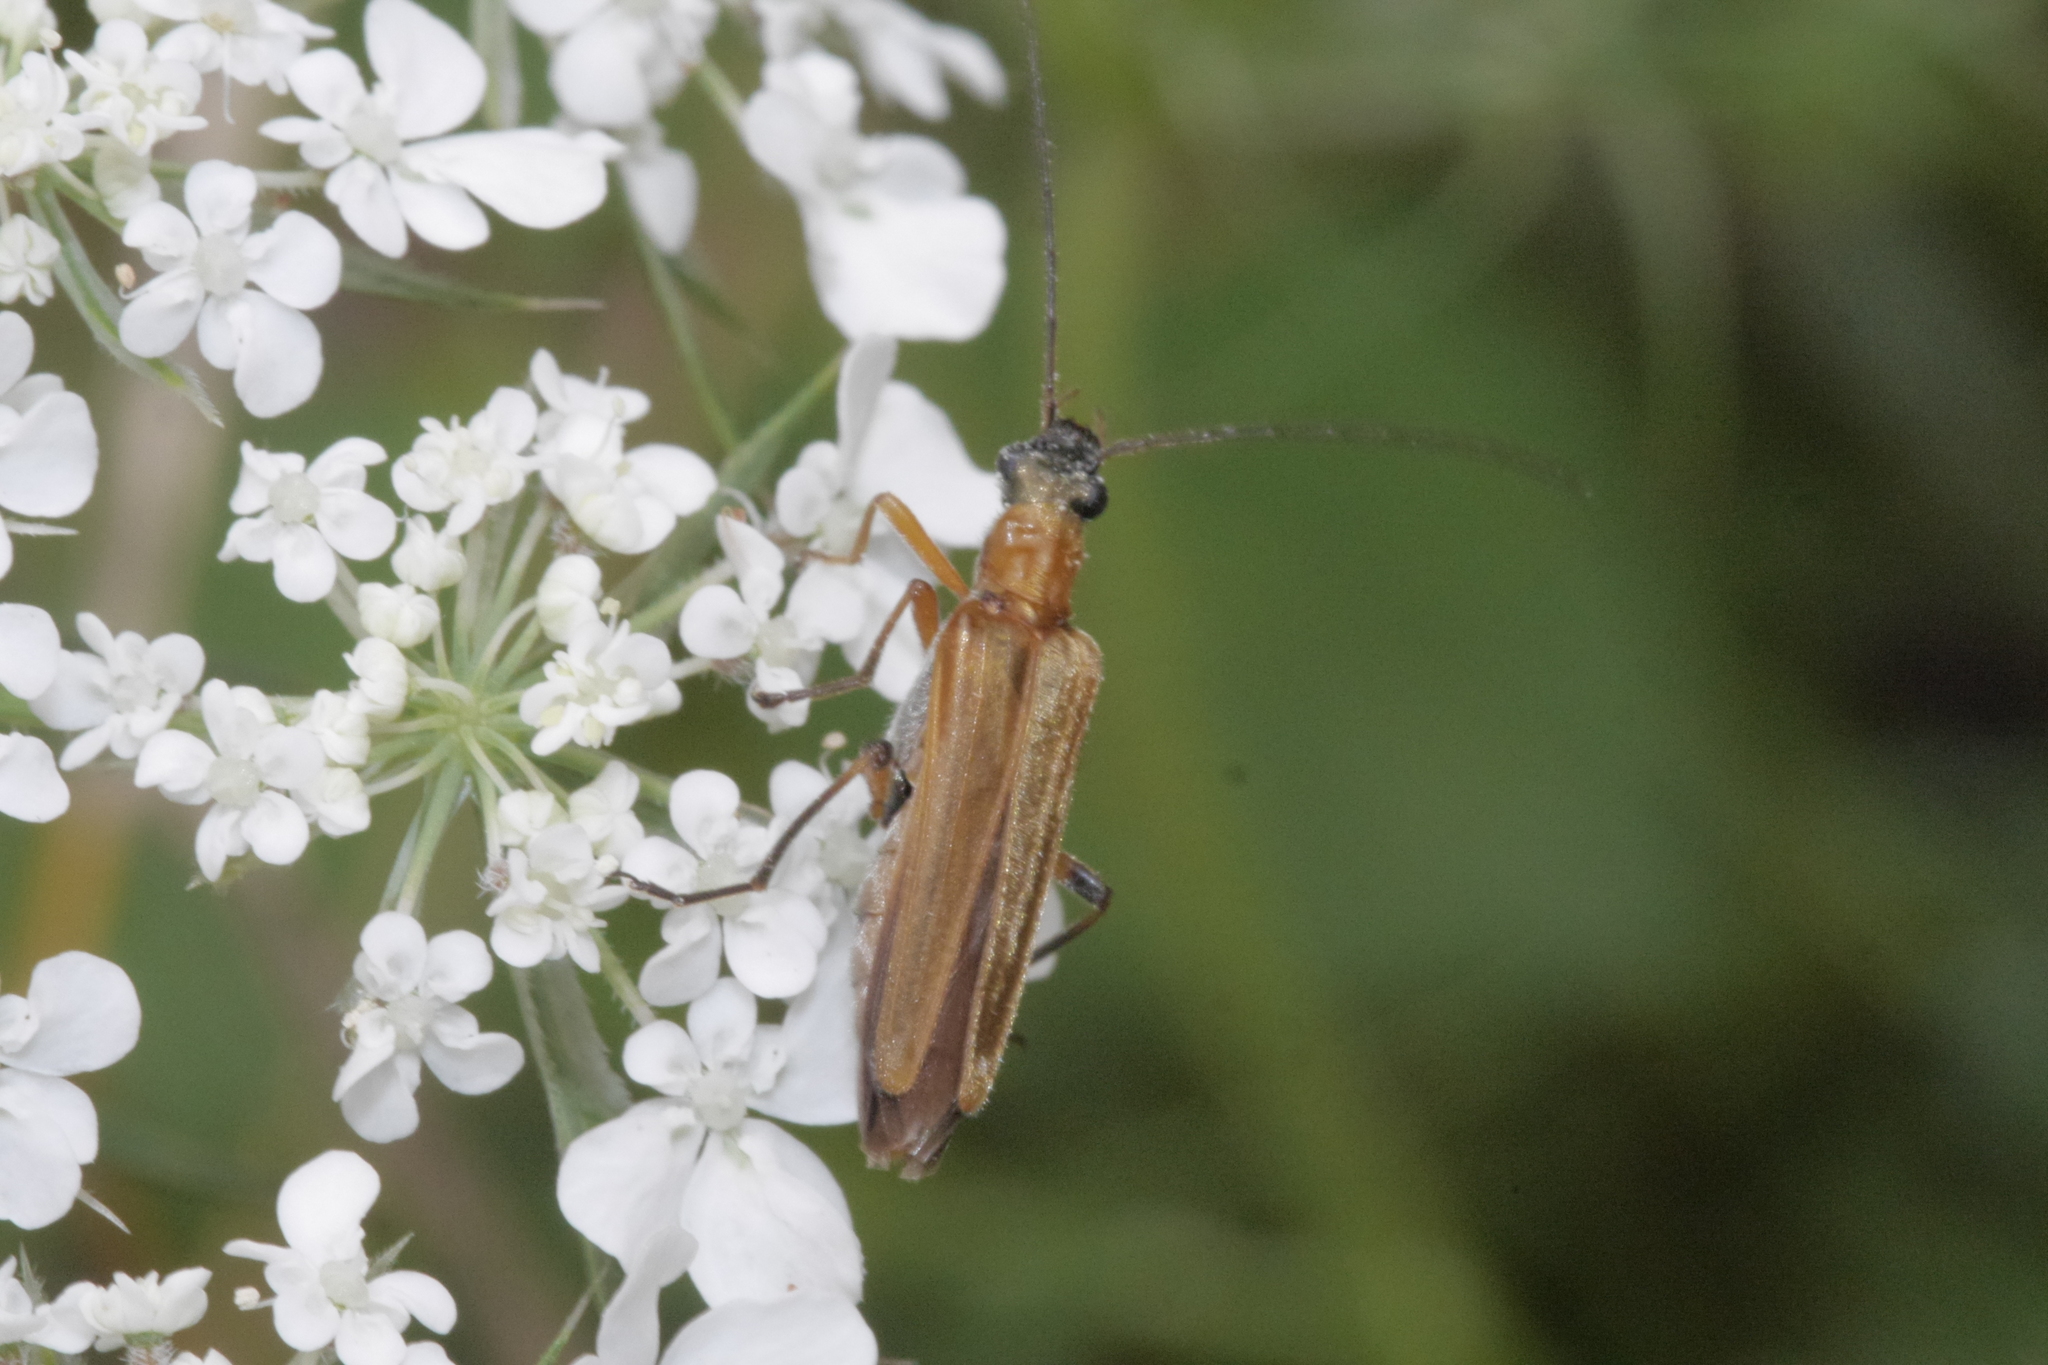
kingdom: Animalia
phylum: Arthropoda
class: Insecta
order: Coleoptera
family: Oedemeridae
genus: Oedemera
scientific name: Oedemera podagrariae
